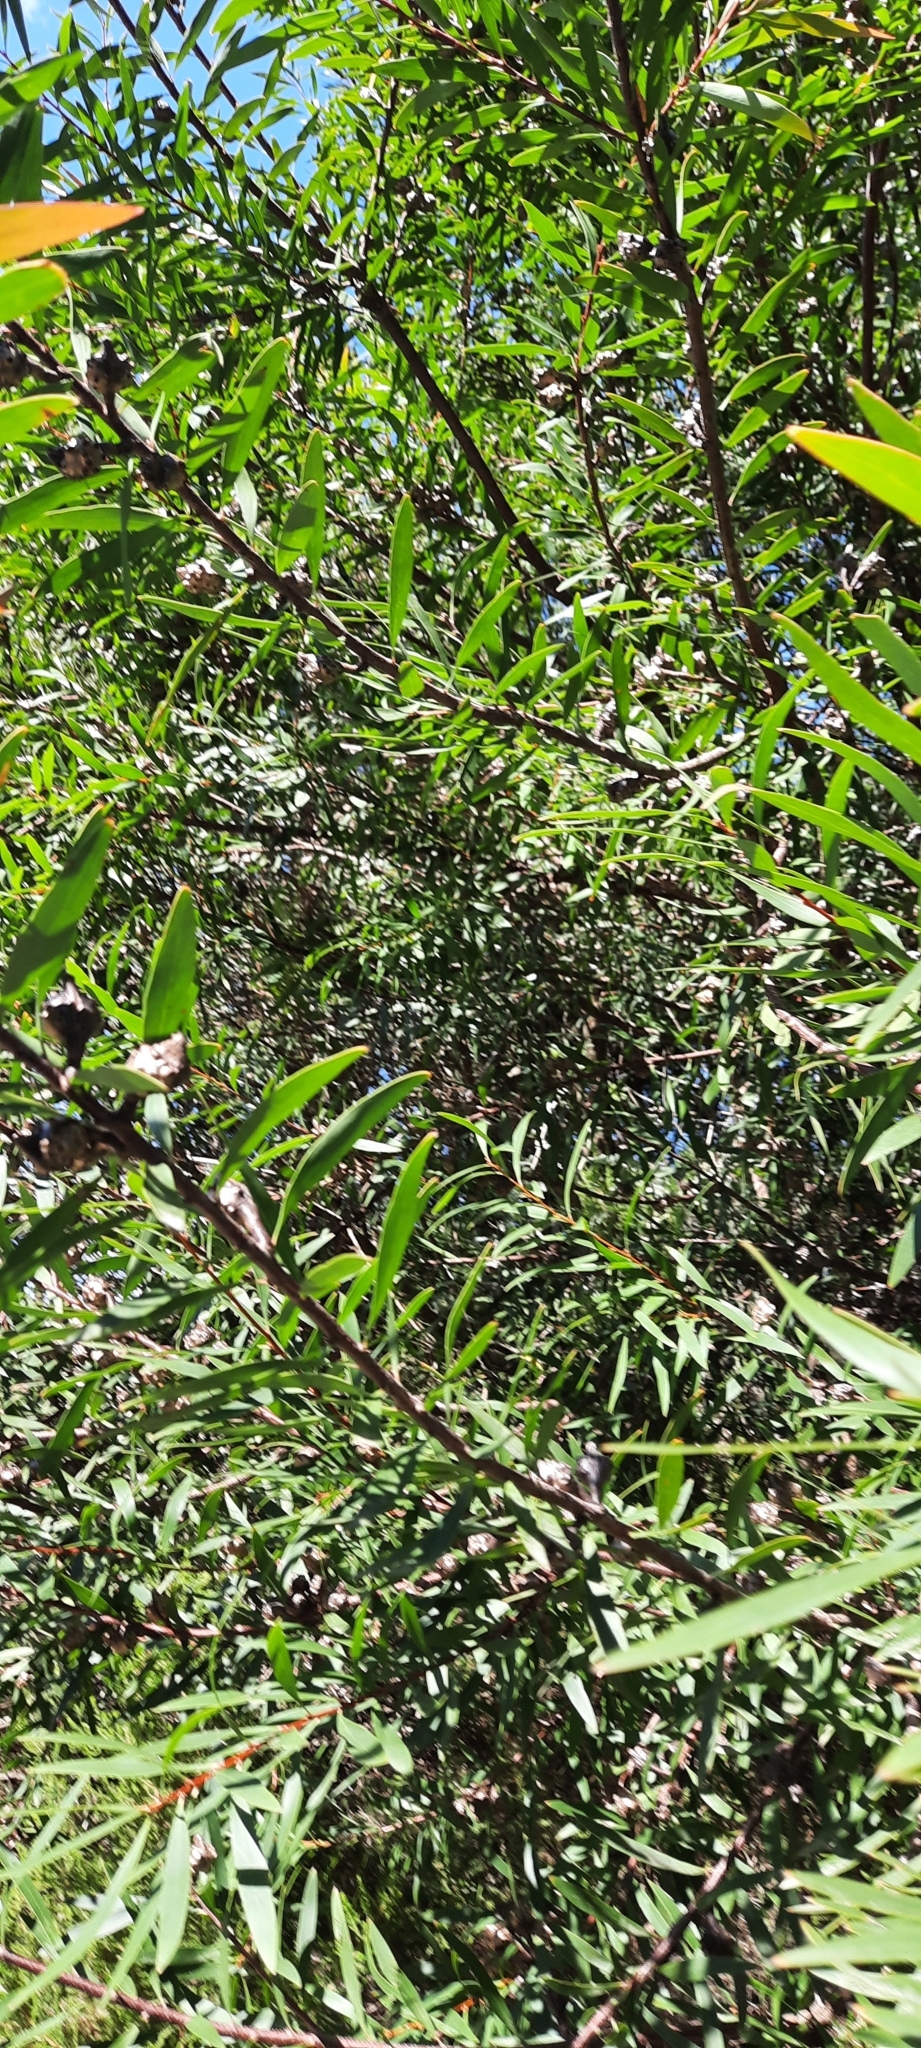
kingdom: Plantae
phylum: Tracheophyta
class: Magnoliopsida
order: Proteales
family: Proteaceae
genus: Hakea
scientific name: Hakea salicifolia
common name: Willow hakea
